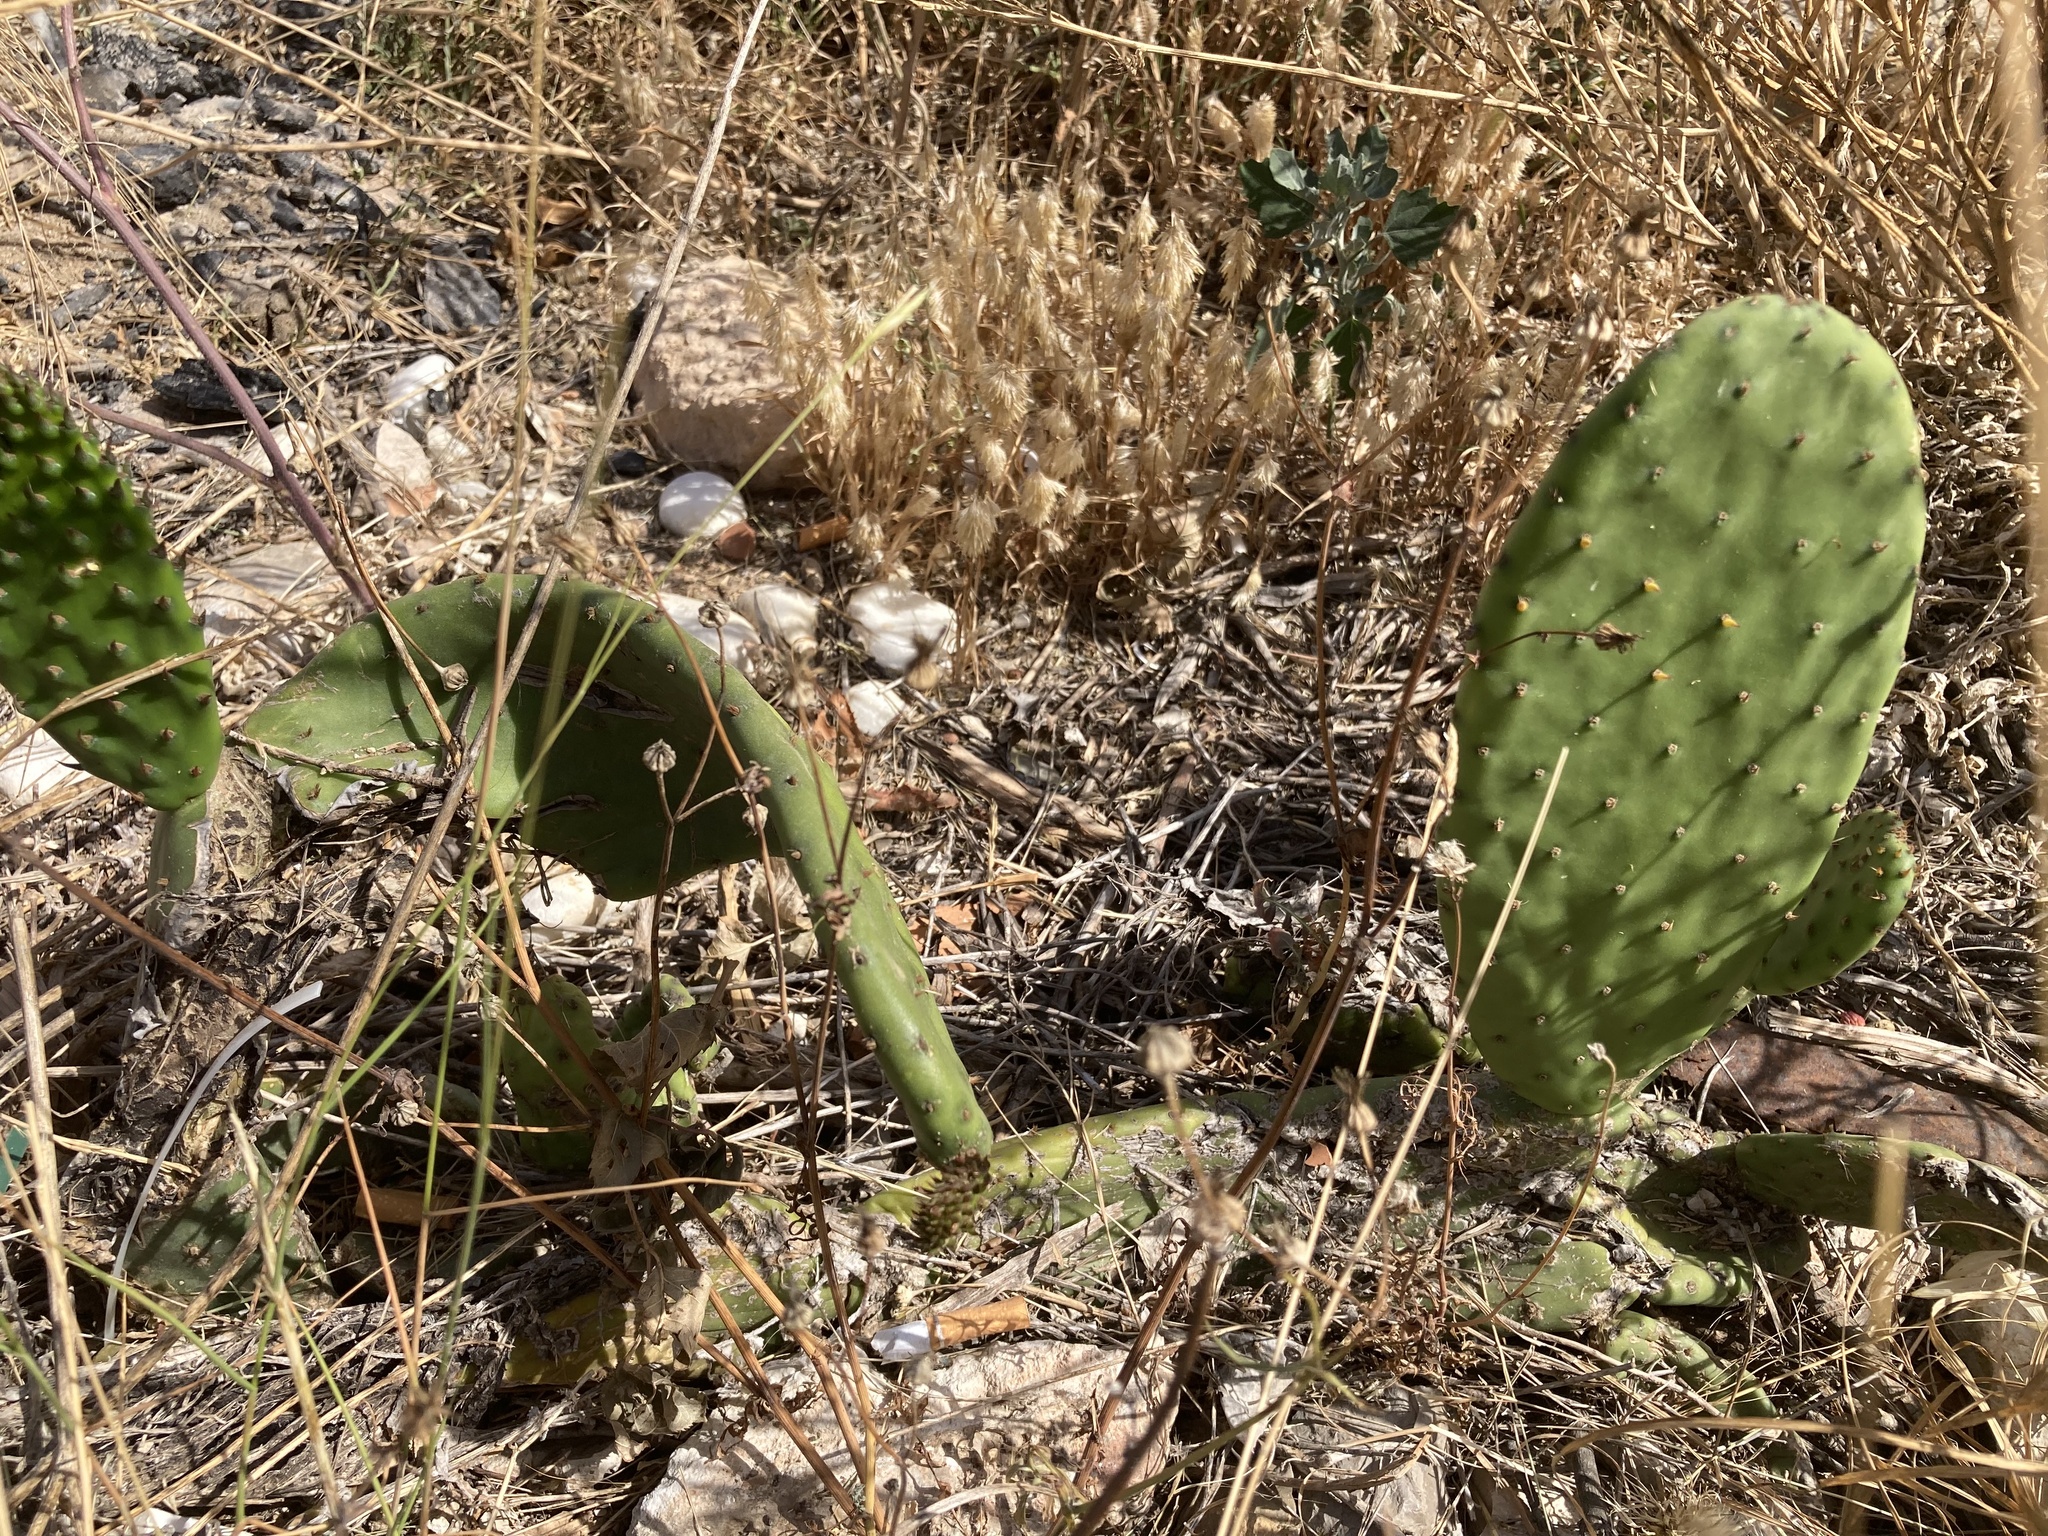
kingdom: Plantae
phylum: Tracheophyta
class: Magnoliopsida
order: Caryophyllales
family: Cactaceae
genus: Opuntia
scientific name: Opuntia ficus-indica
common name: Barbary fig
